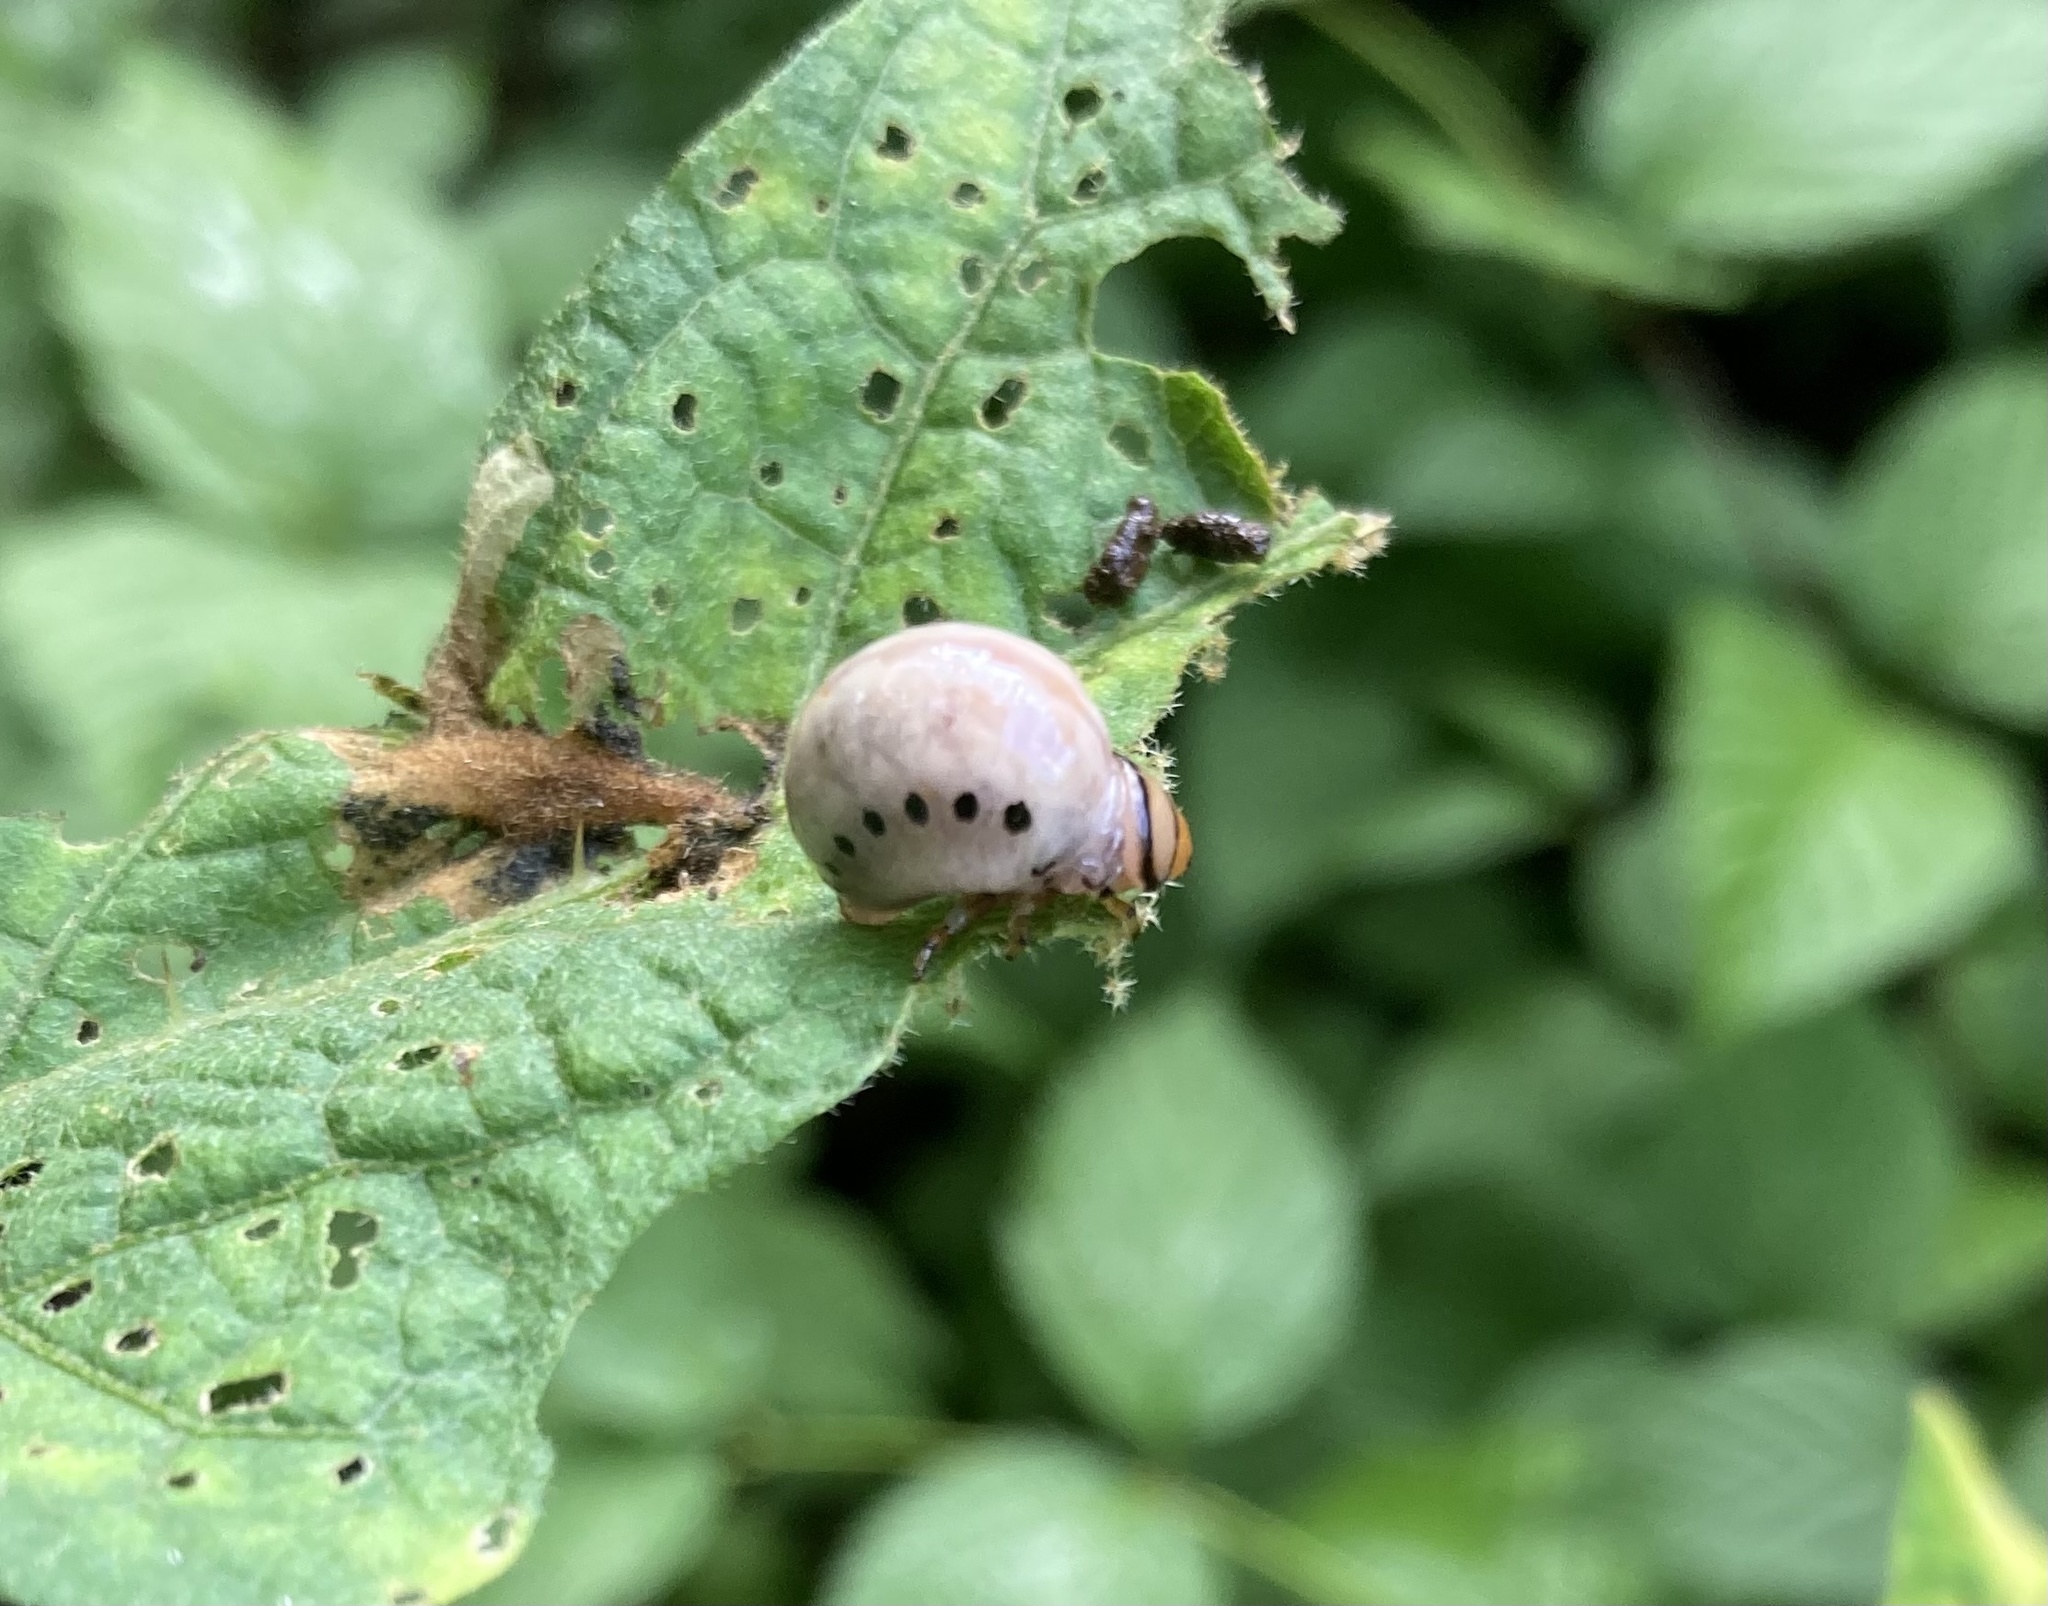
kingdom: Animalia
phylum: Arthropoda
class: Insecta
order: Coleoptera
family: Chrysomelidae
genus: Leptinotarsa
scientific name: Leptinotarsa juncta
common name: False potato beetle
